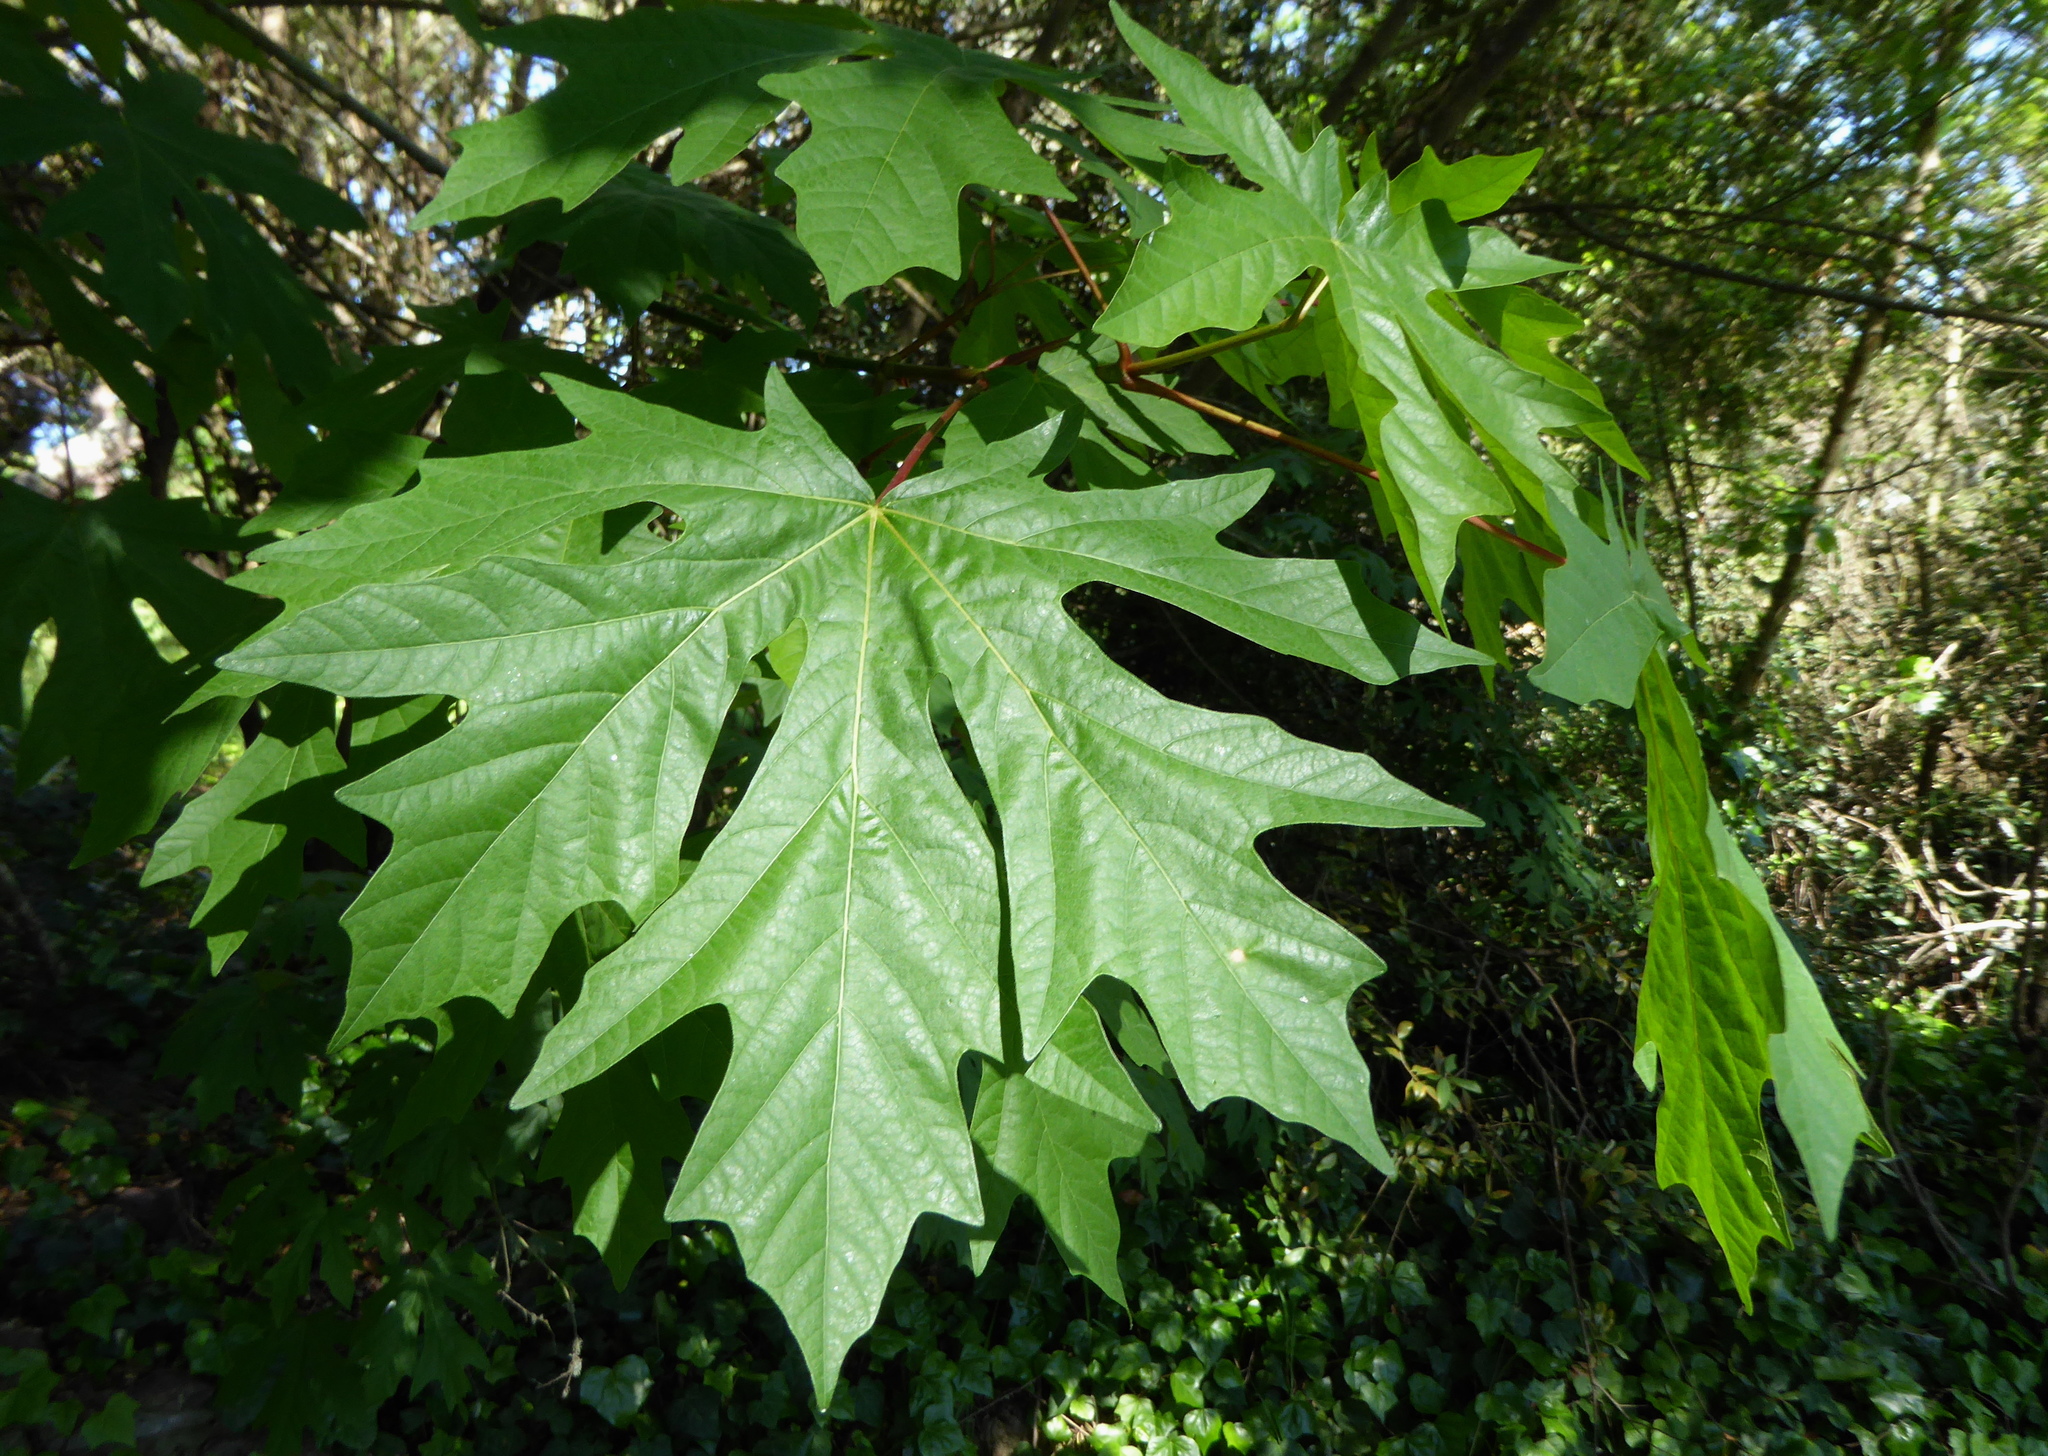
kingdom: Plantae
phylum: Tracheophyta
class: Magnoliopsida
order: Sapindales
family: Sapindaceae
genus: Acer
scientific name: Acer macrophyllum
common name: Oregon maple
